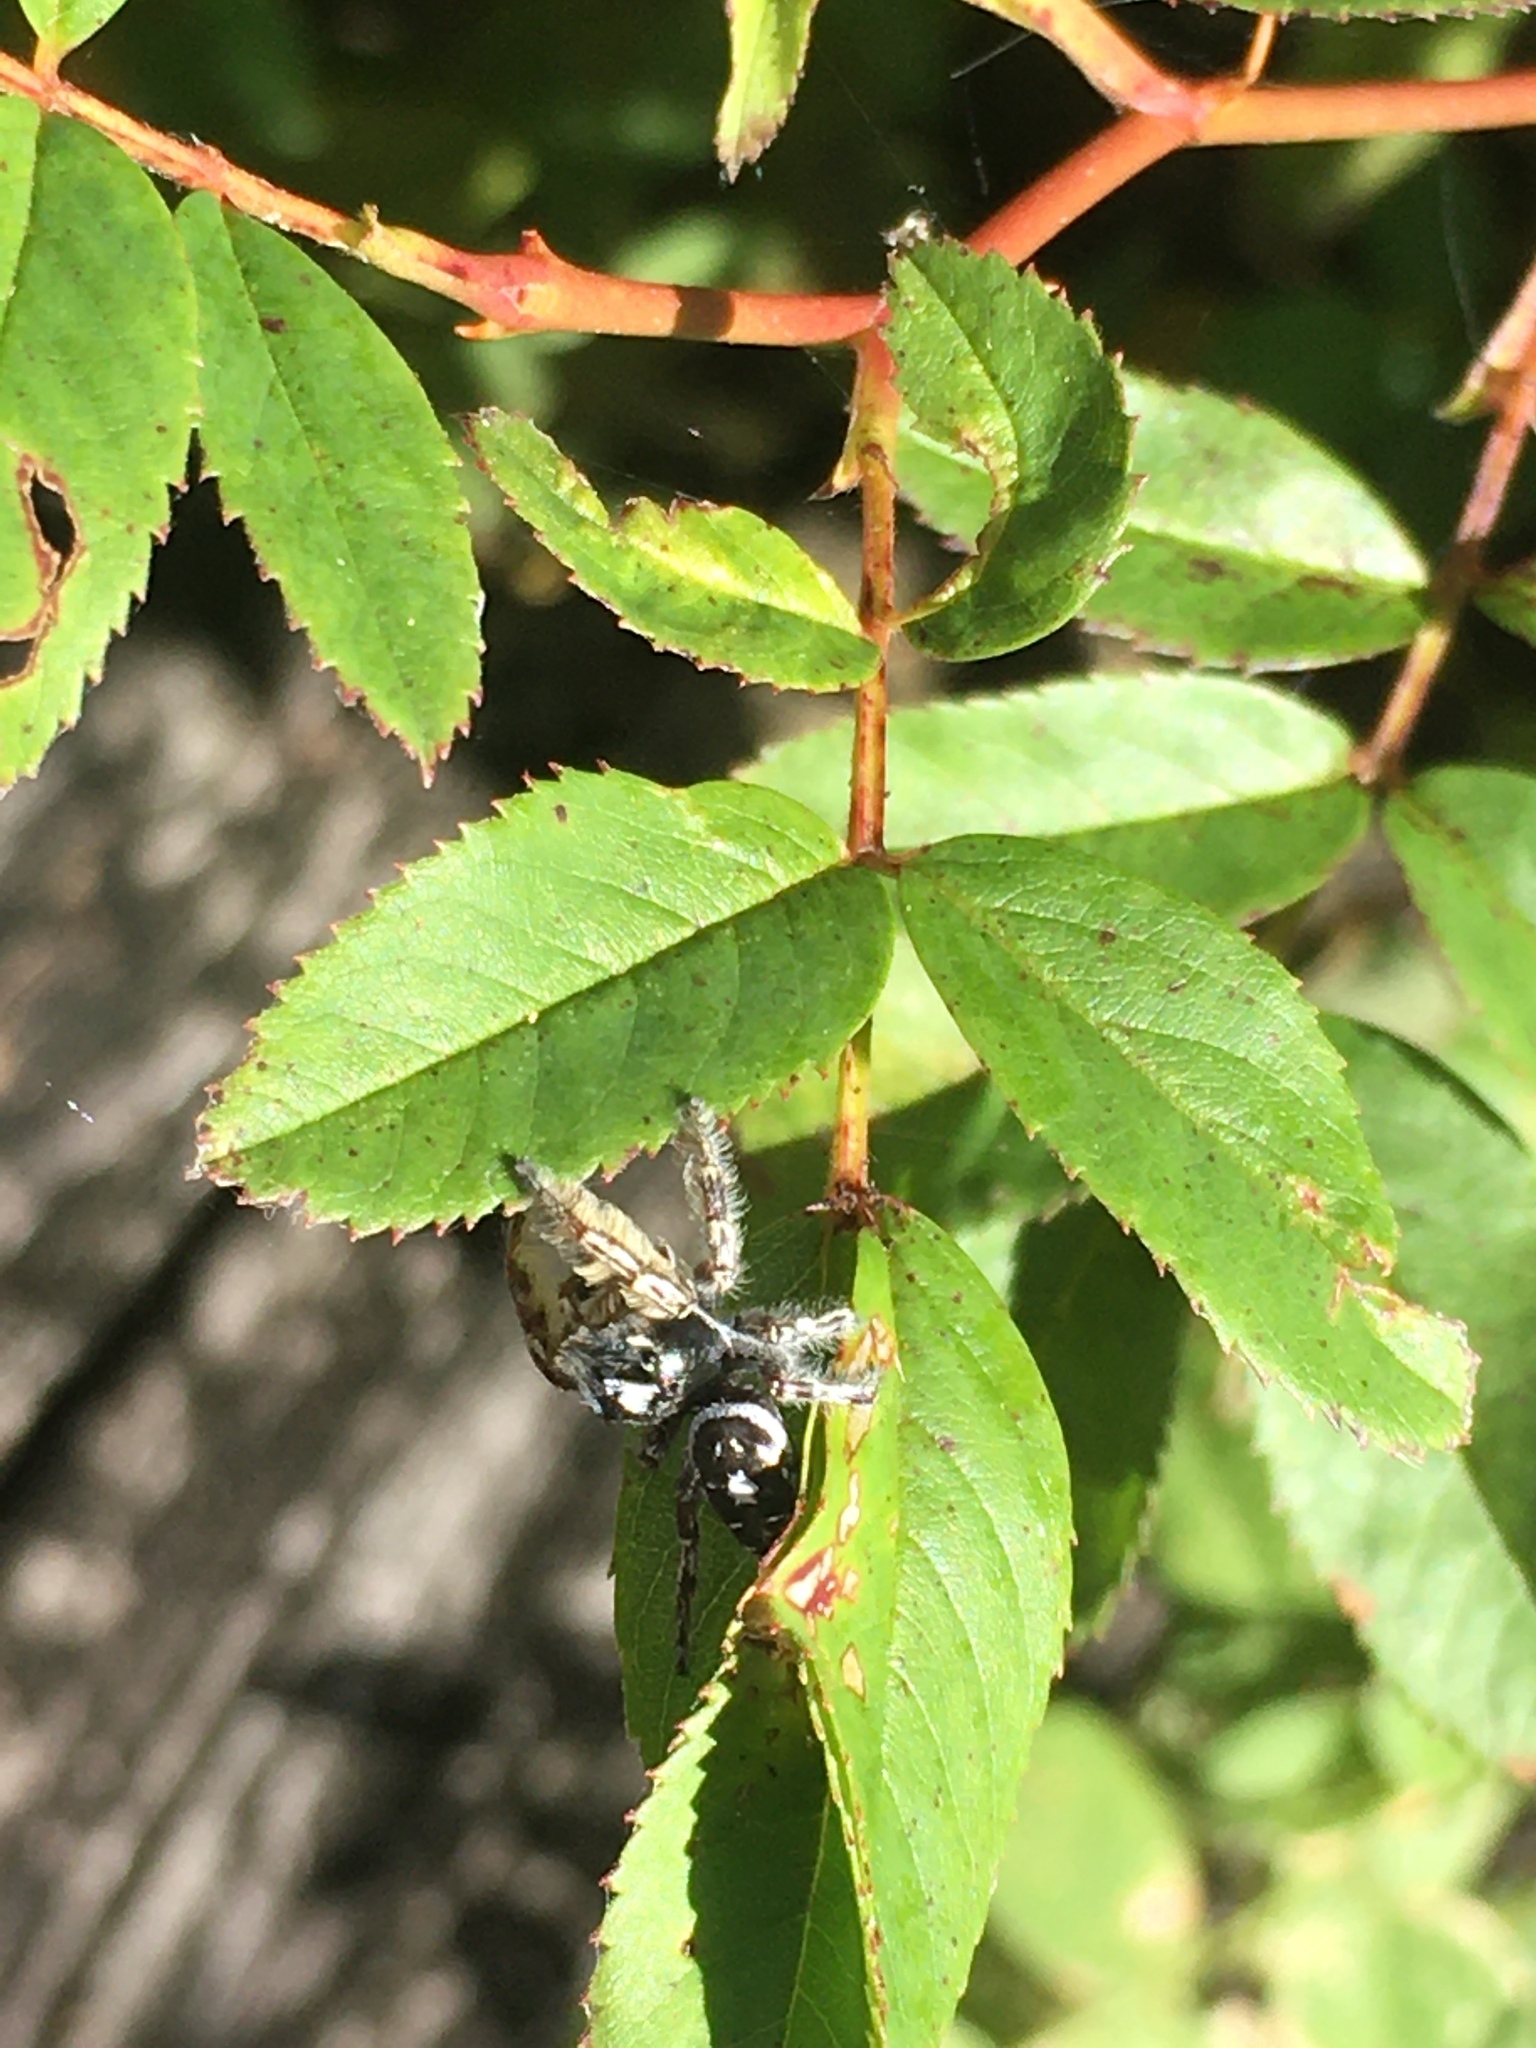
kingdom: Animalia
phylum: Arthropoda
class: Arachnida
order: Araneae
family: Salticidae
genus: Phidippus
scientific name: Phidippus putnami
